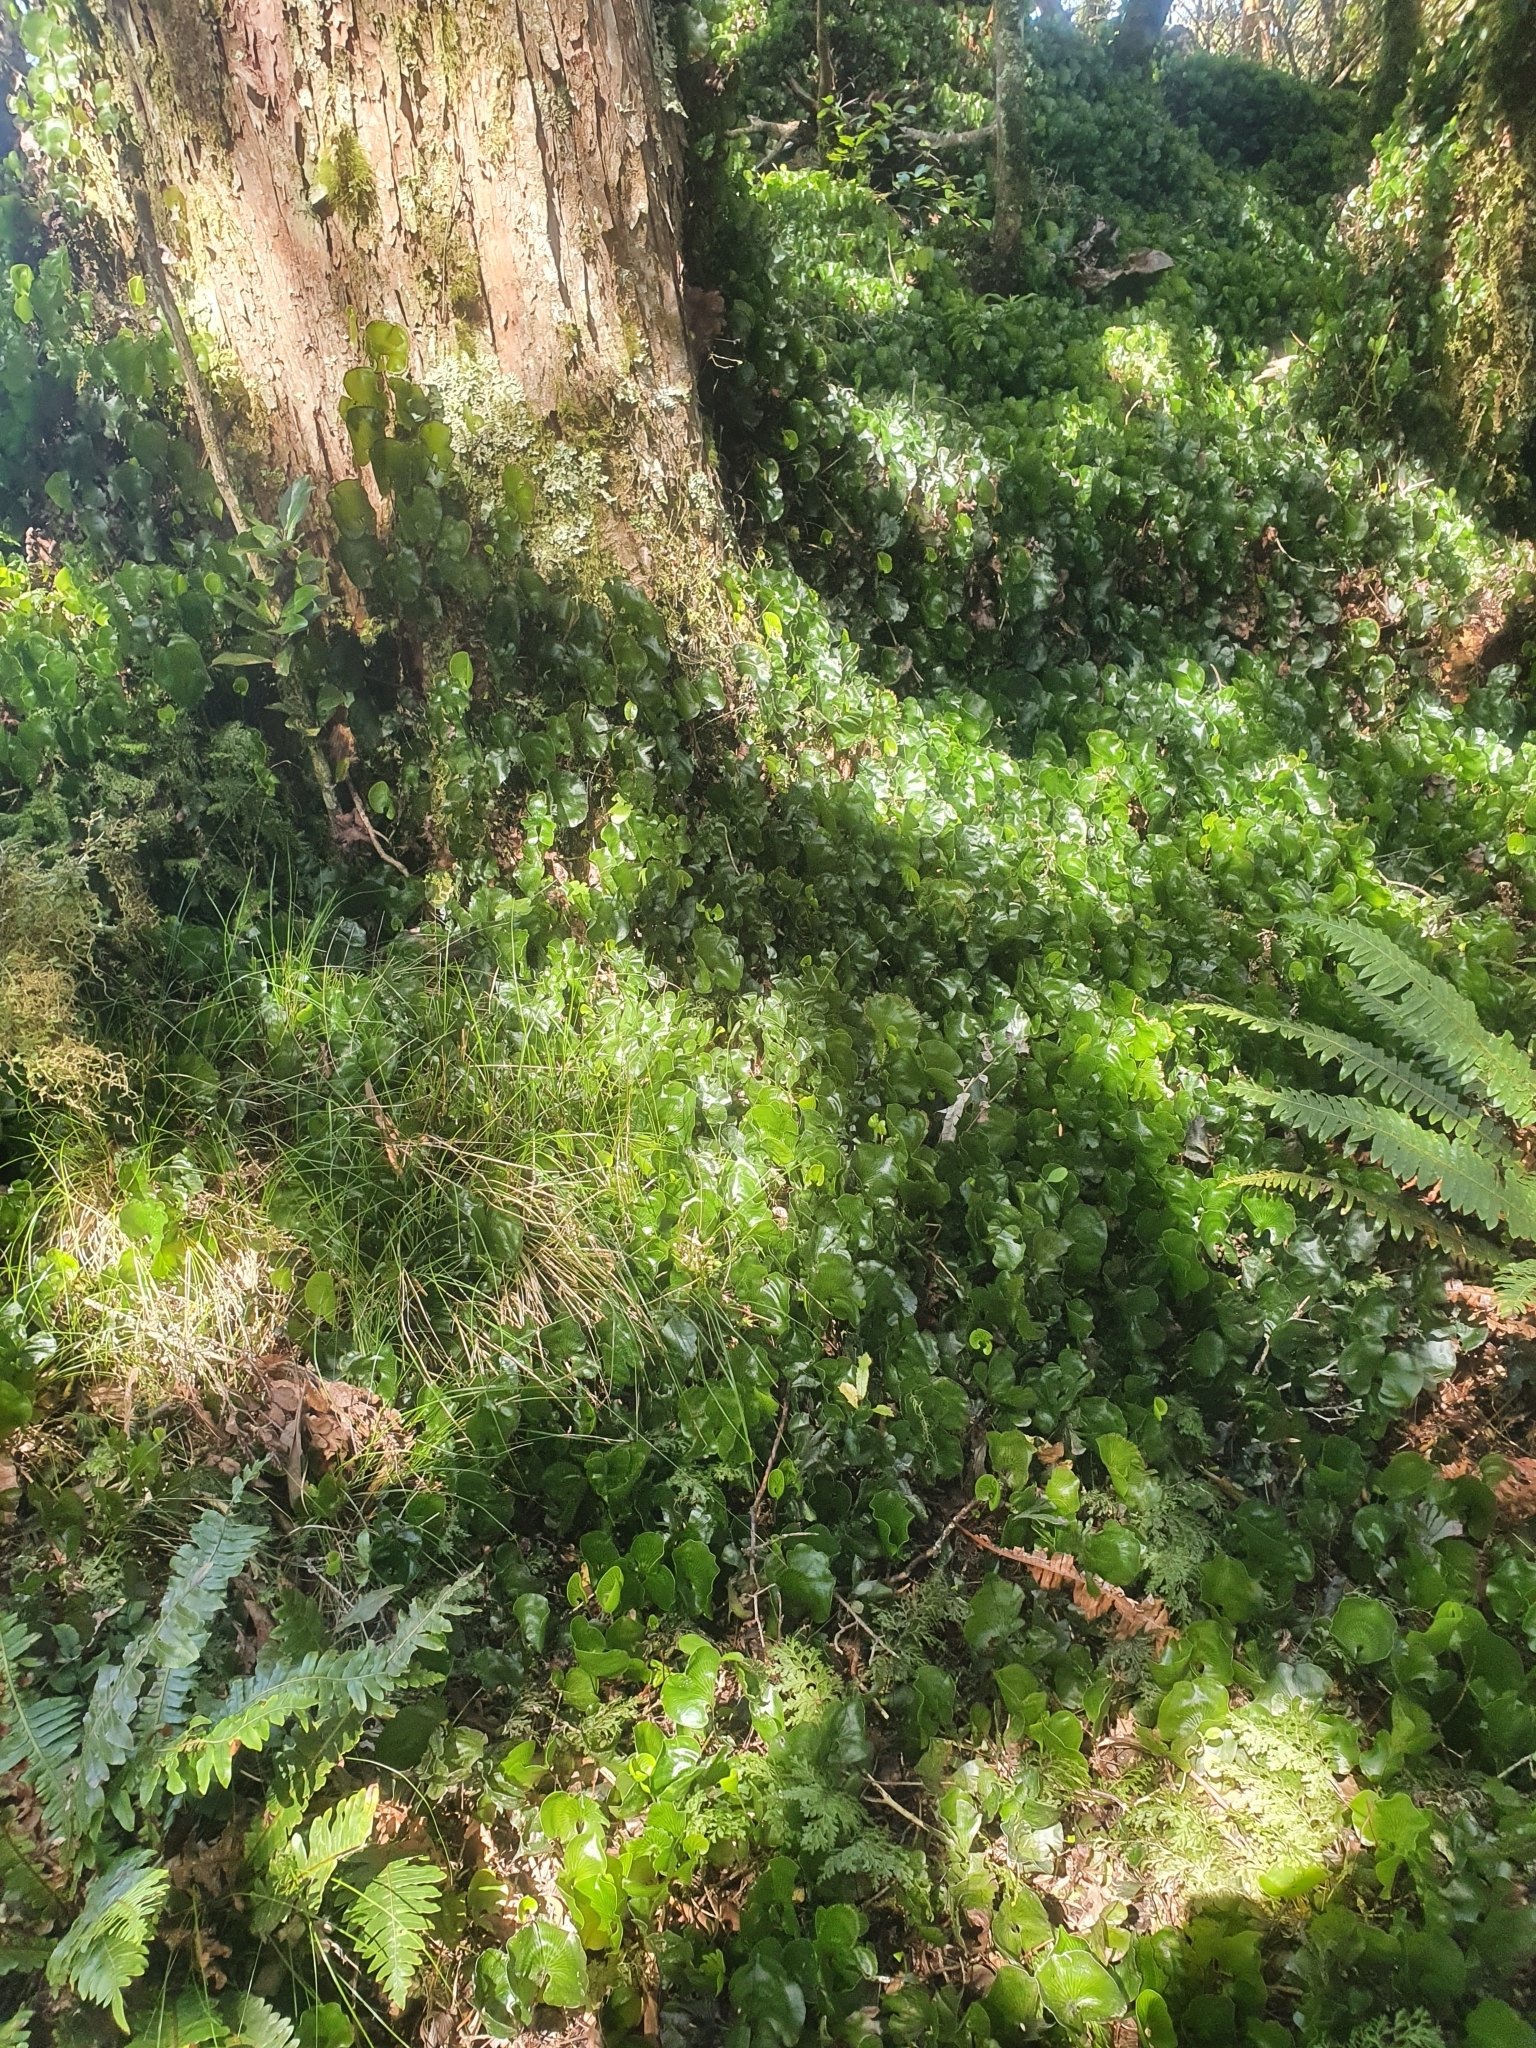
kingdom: Plantae
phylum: Tracheophyta
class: Polypodiopsida
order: Hymenophyllales
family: Hymenophyllaceae
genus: Hymenophyllum
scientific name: Hymenophyllum nephrophyllum
